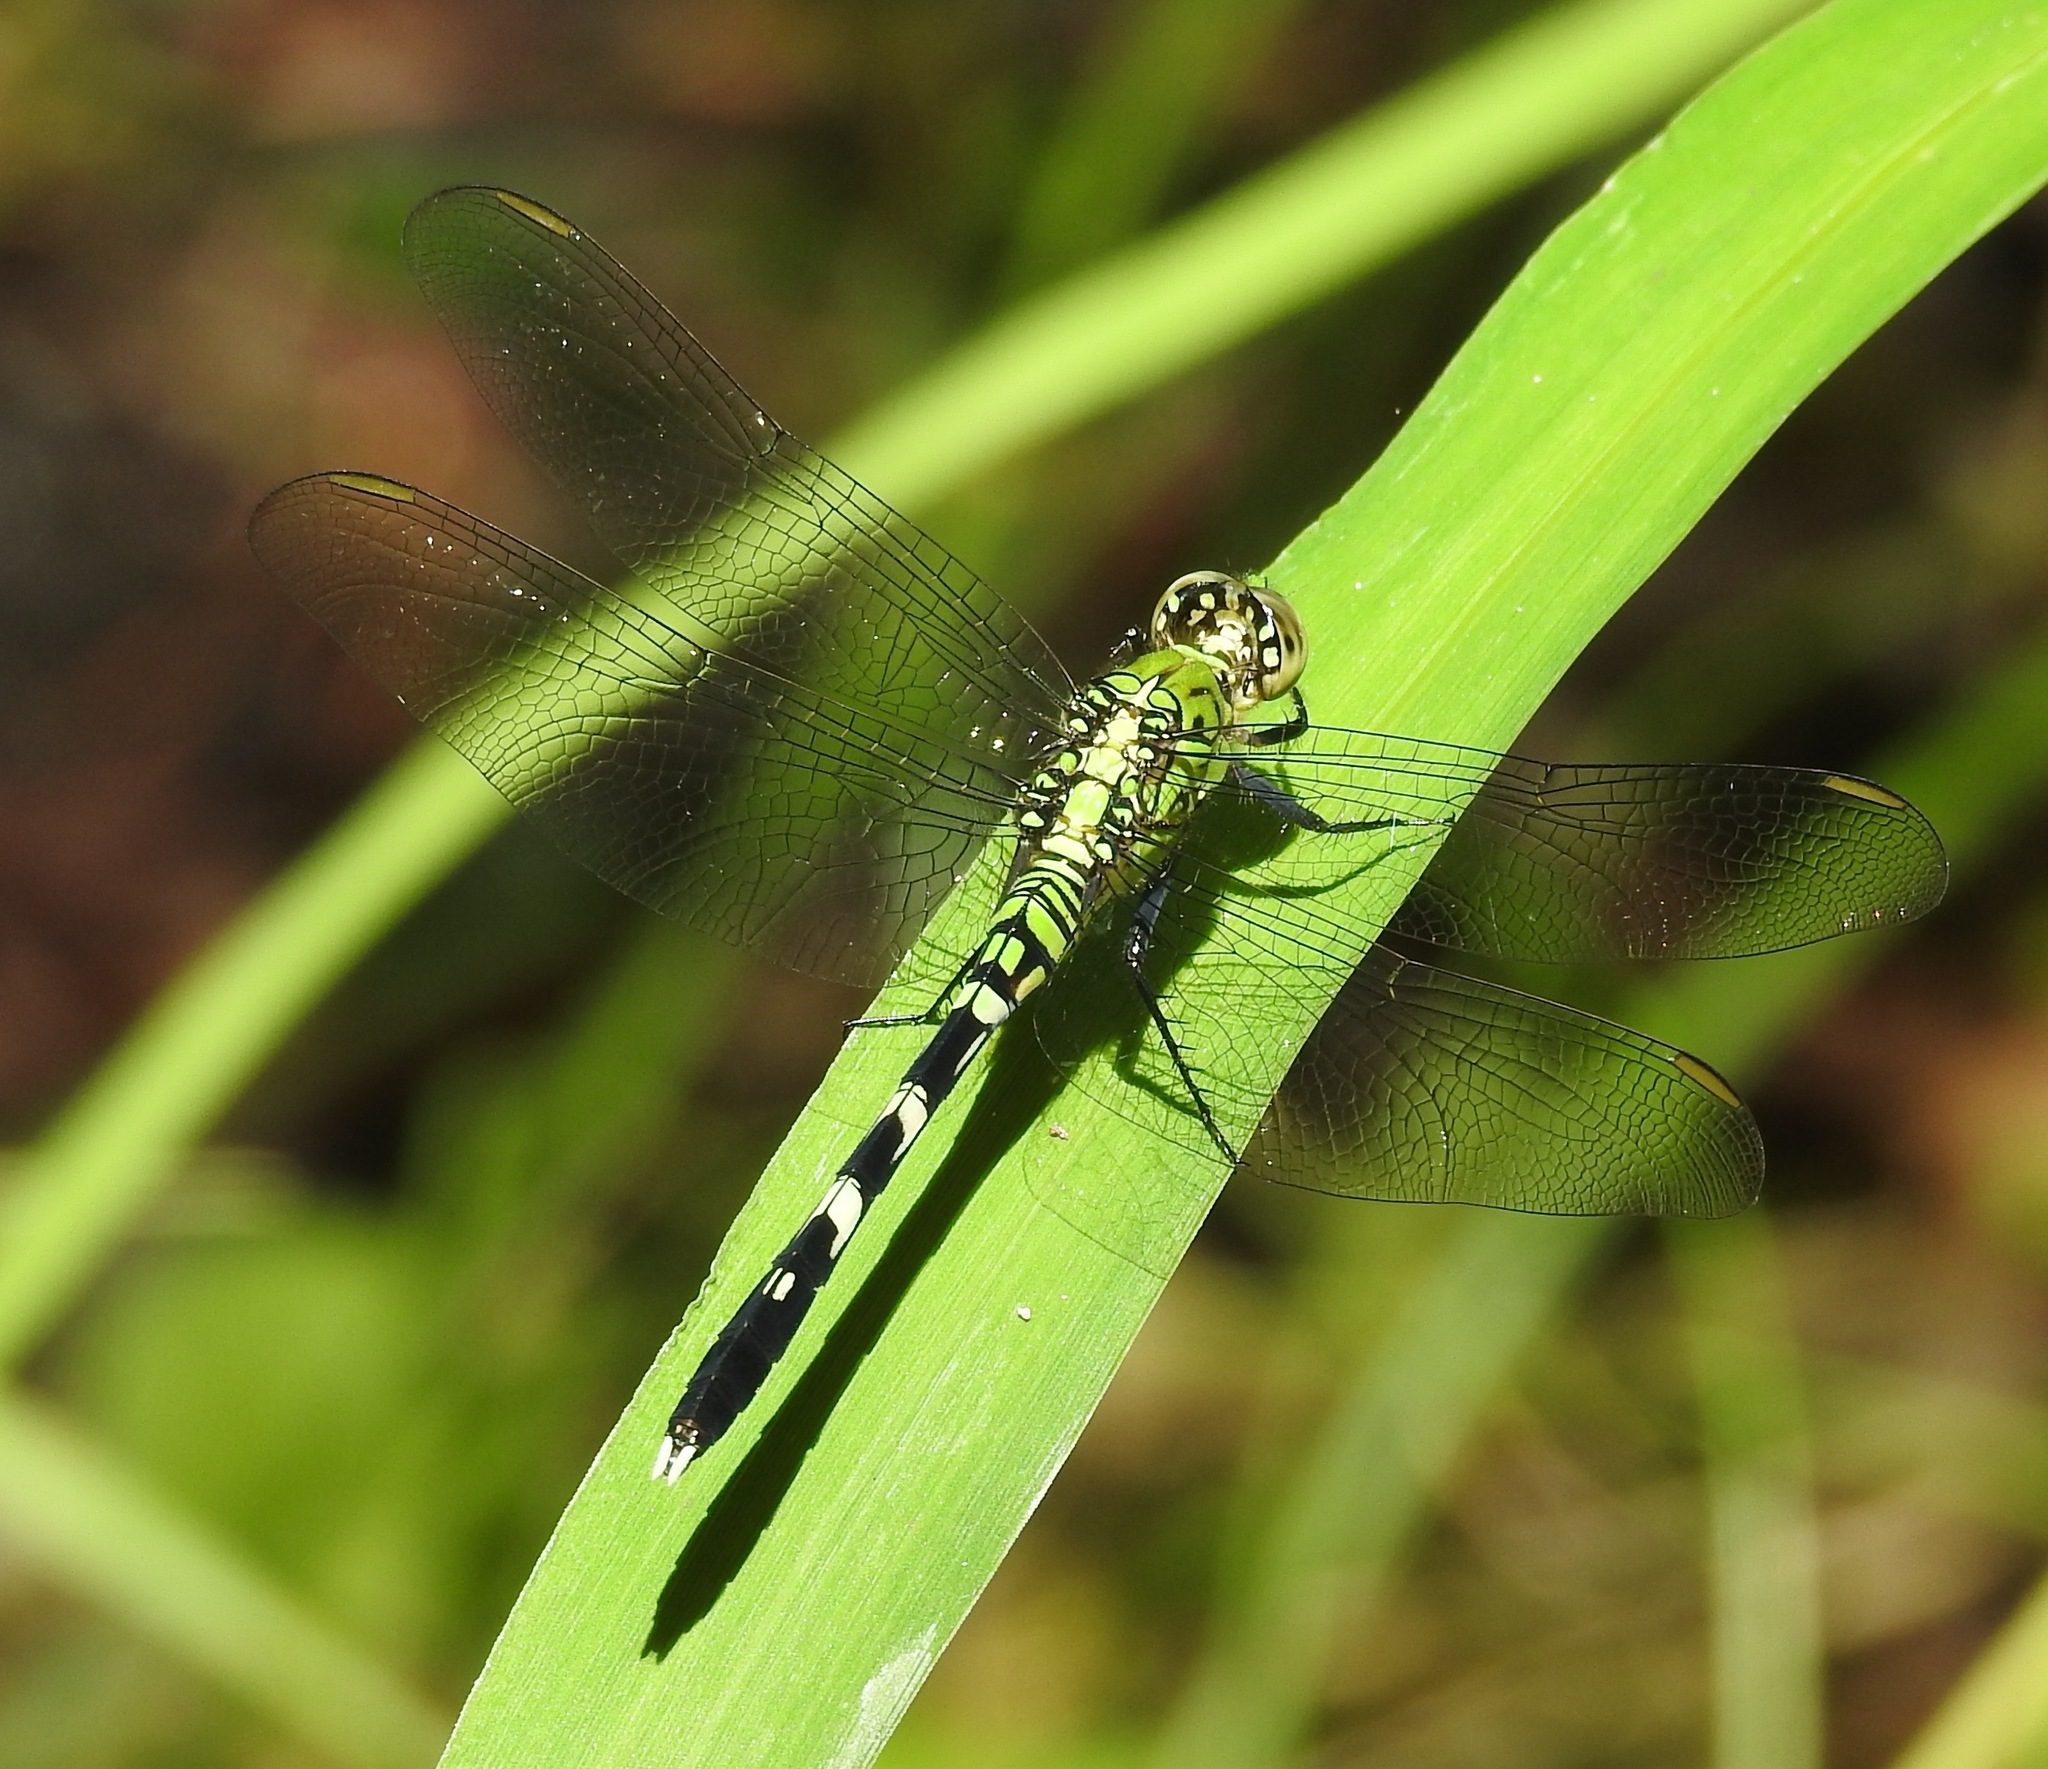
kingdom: Animalia
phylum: Arthropoda
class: Insecta
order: Odonata
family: Libellulidae
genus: Erythemis
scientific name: Erythemis simplicicollis
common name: Eastern pondhawk
